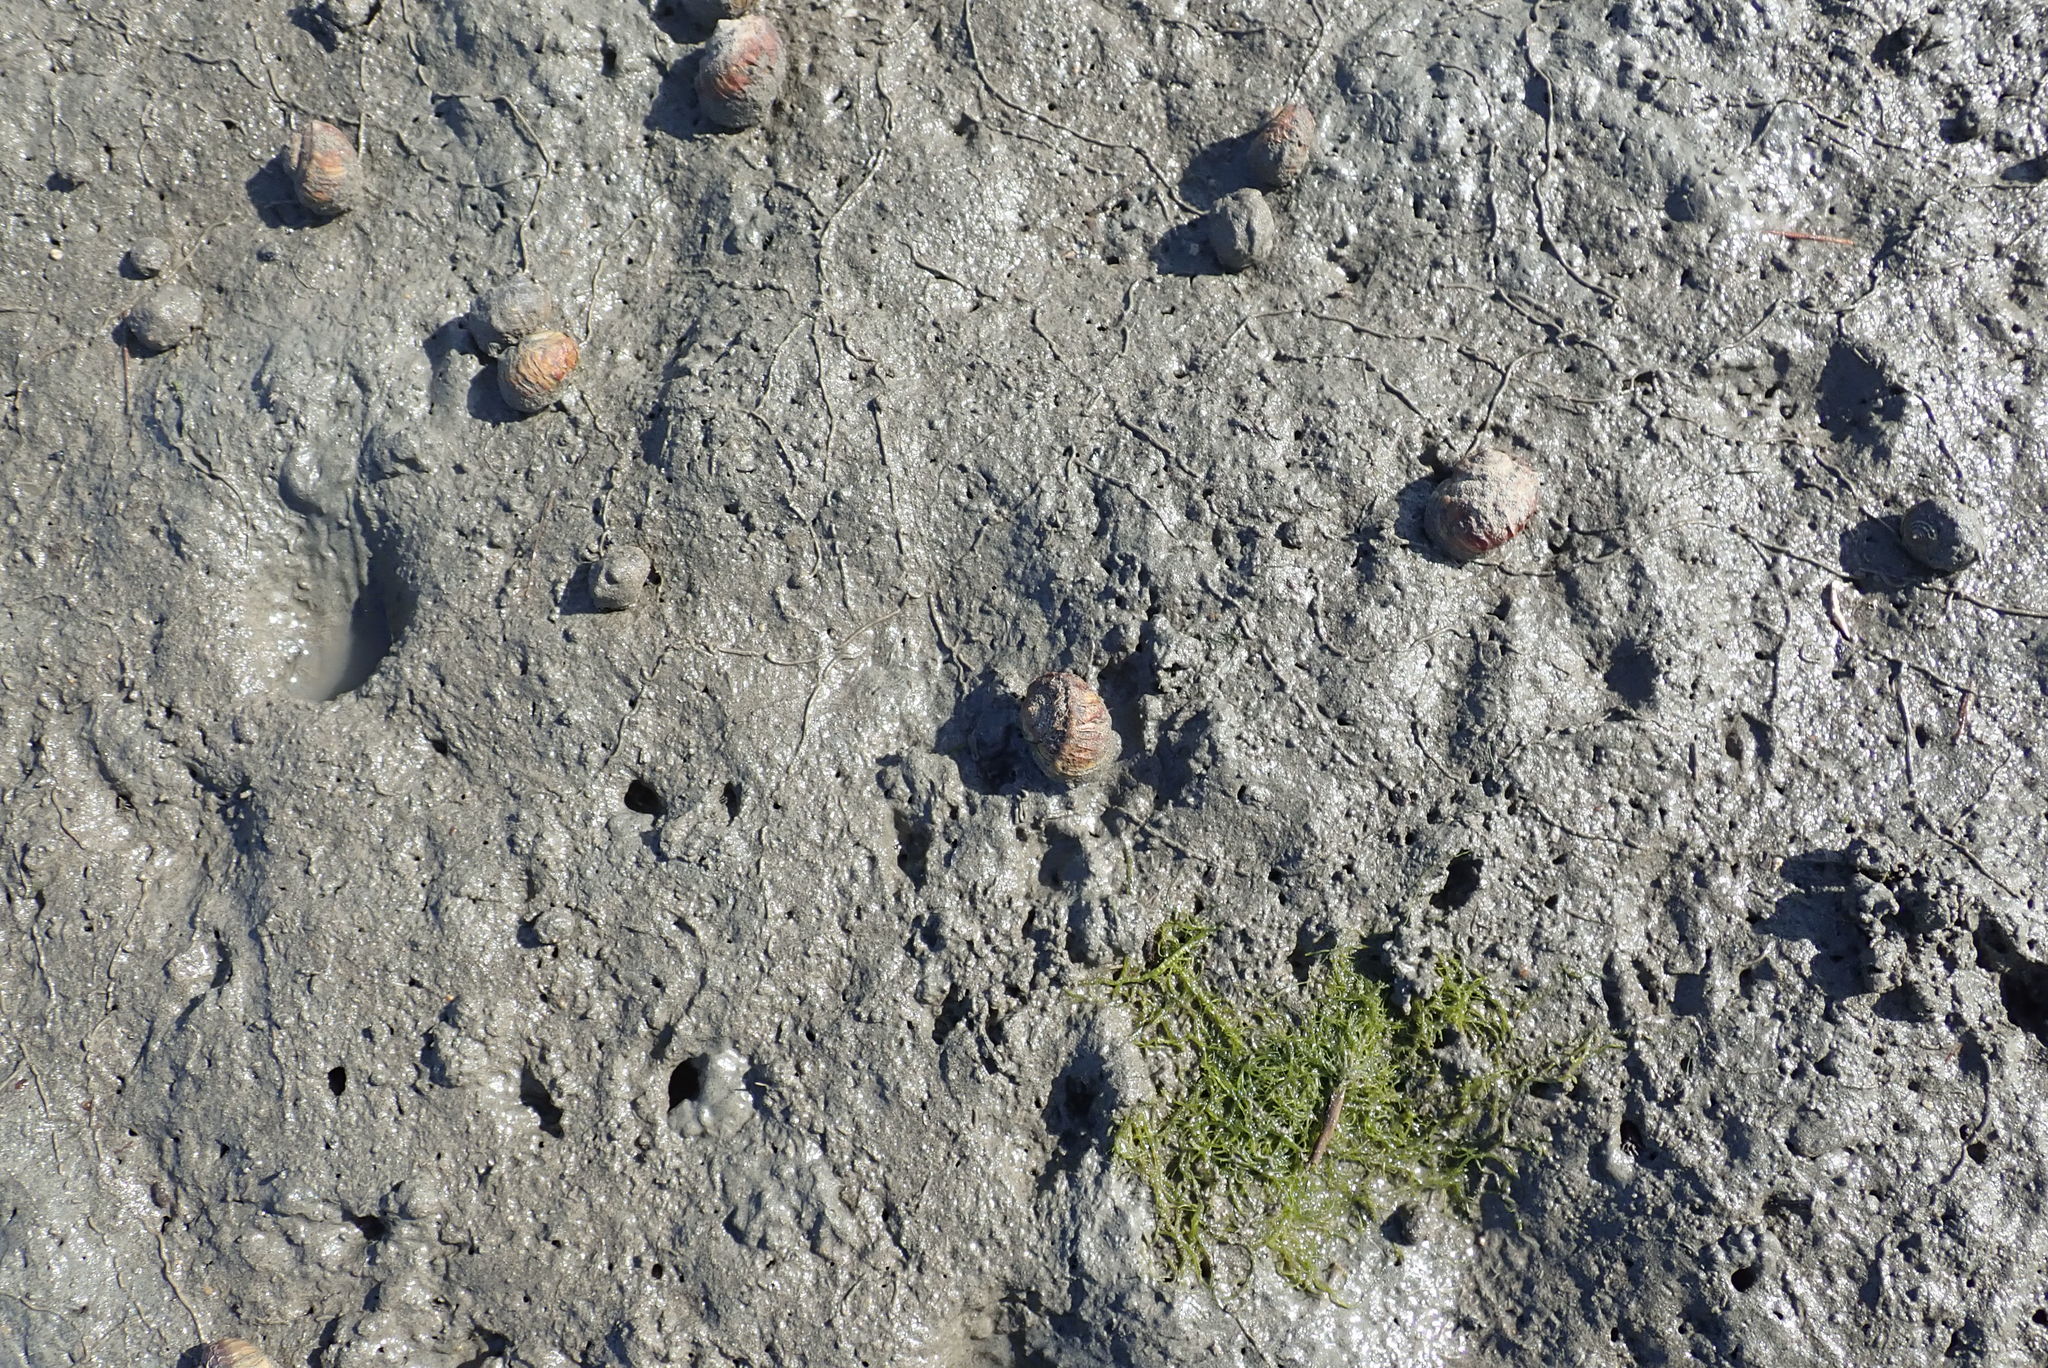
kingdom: Animalia
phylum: Mollusca
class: Gastropoda
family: Amphibolidae
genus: Amphibola
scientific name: Amphibola crenata
